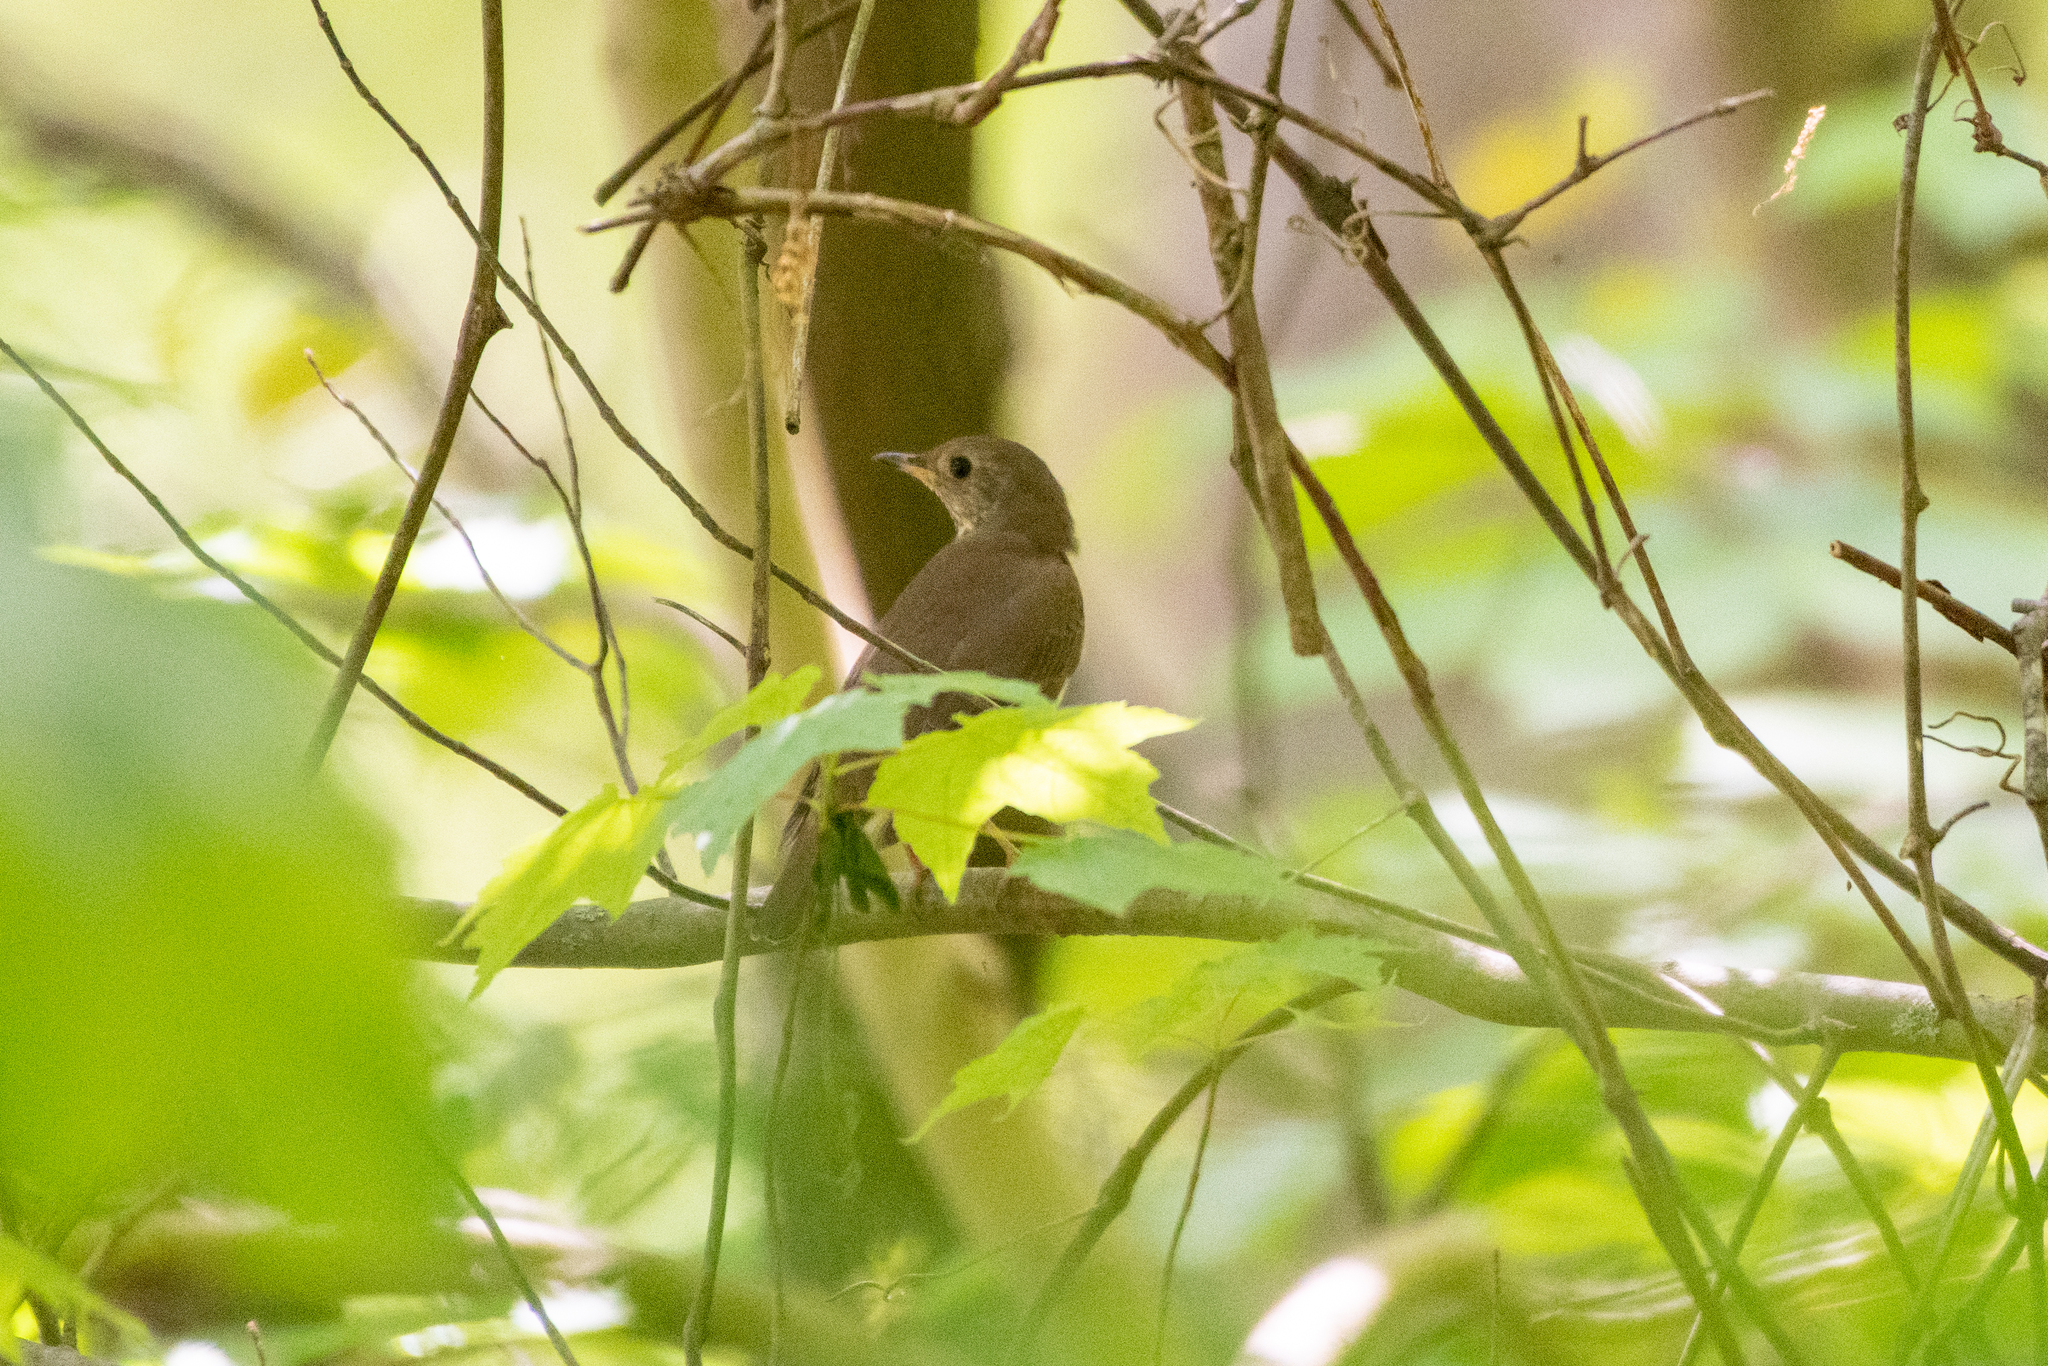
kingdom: Animalia
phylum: Chordata
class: Aves
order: Passeriformes
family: Turdidae
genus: Catharus
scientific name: Catharus minimus
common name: Grey-cheeked thrush
